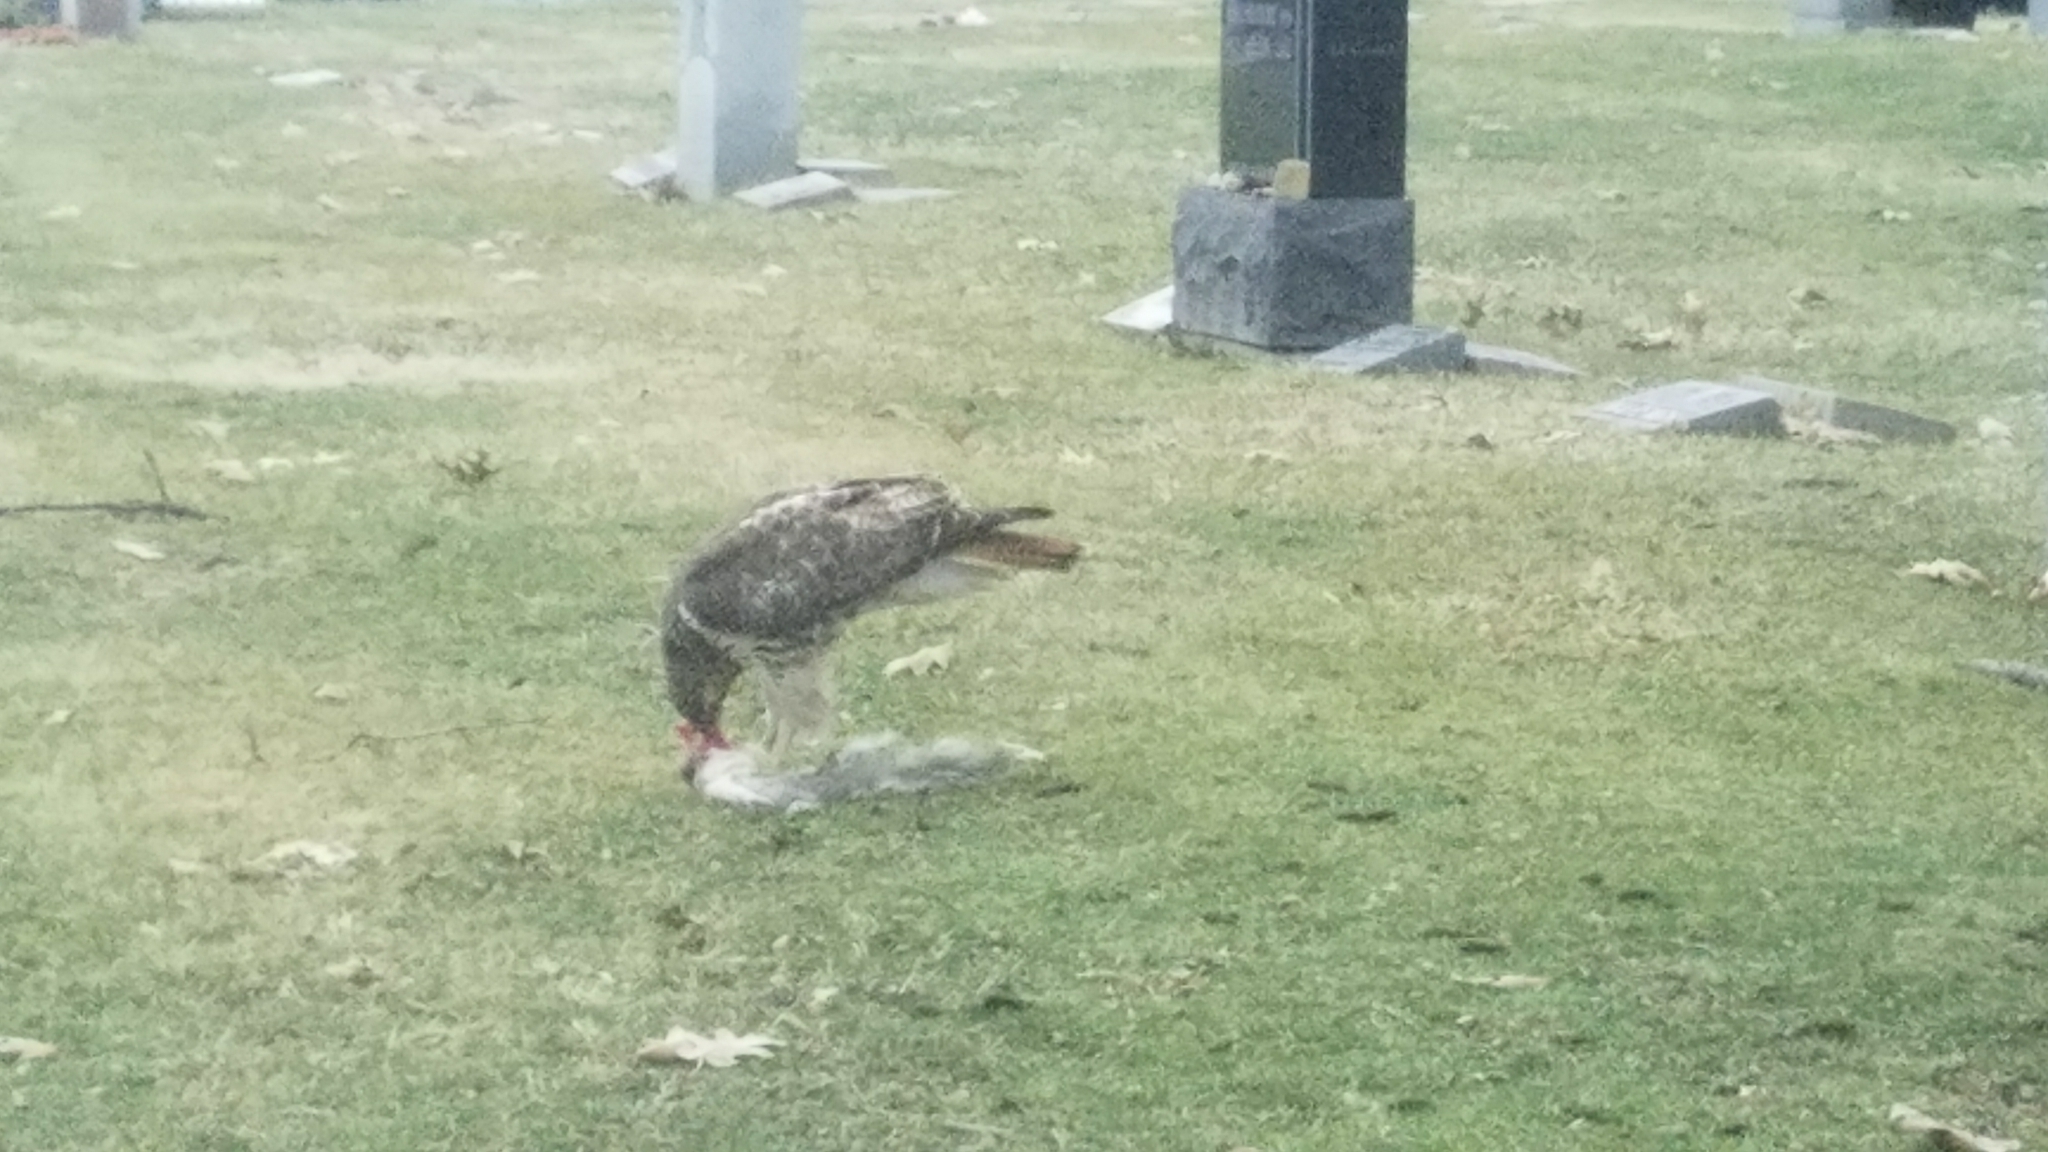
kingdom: Animalia
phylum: Chordata
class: Aves
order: Accipitriformes
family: Accipitridae
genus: Buteo
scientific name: Buteo jamaicensis
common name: Red-tailed hawk
